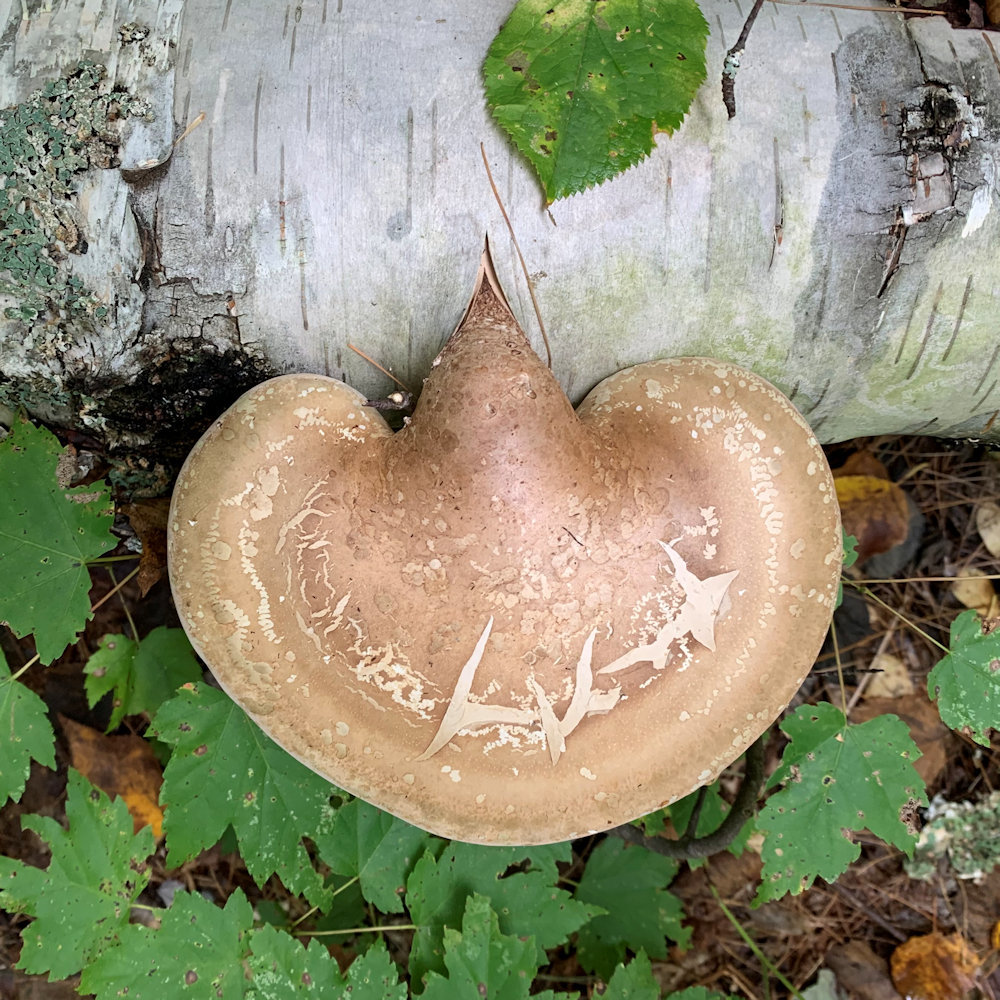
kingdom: Fungi
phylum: Basidiomycota
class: Agaricomycetes
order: Polyporales
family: Fomitopsidaceae
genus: Fomitopsis
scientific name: Fomitopsis betulina
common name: Birch polypore
